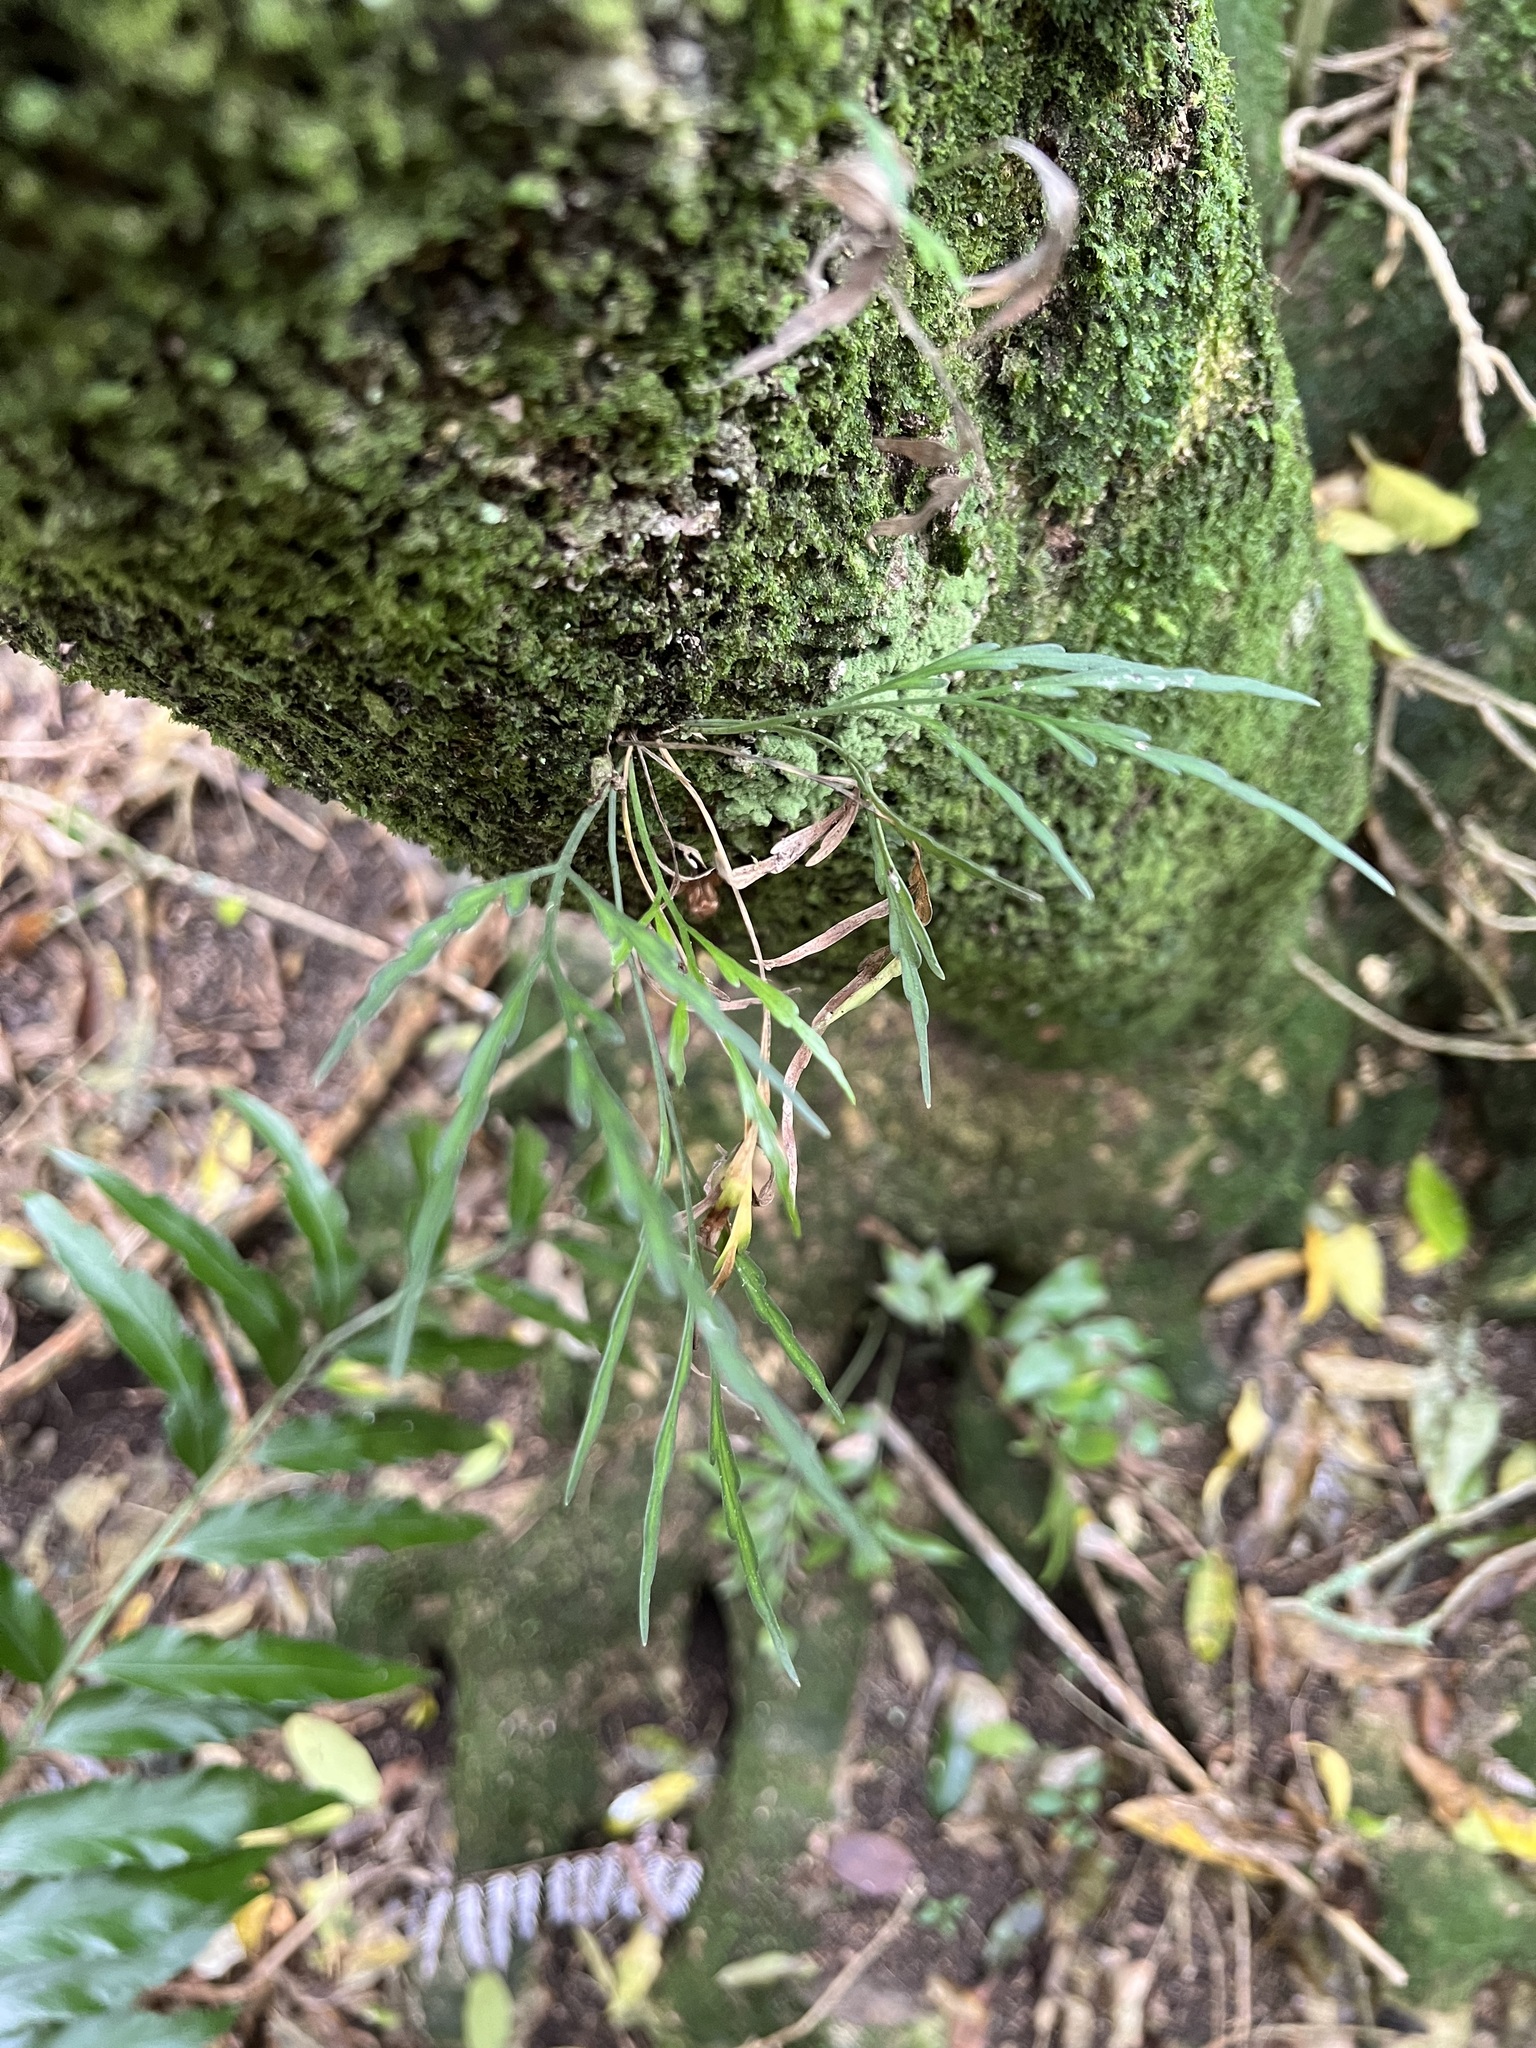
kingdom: Plantae
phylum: Tracheophyta
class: Polypodiopsida
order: Polypodiales
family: Aspleniaceae
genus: Asplenium
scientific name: Asplenium flaccidum
